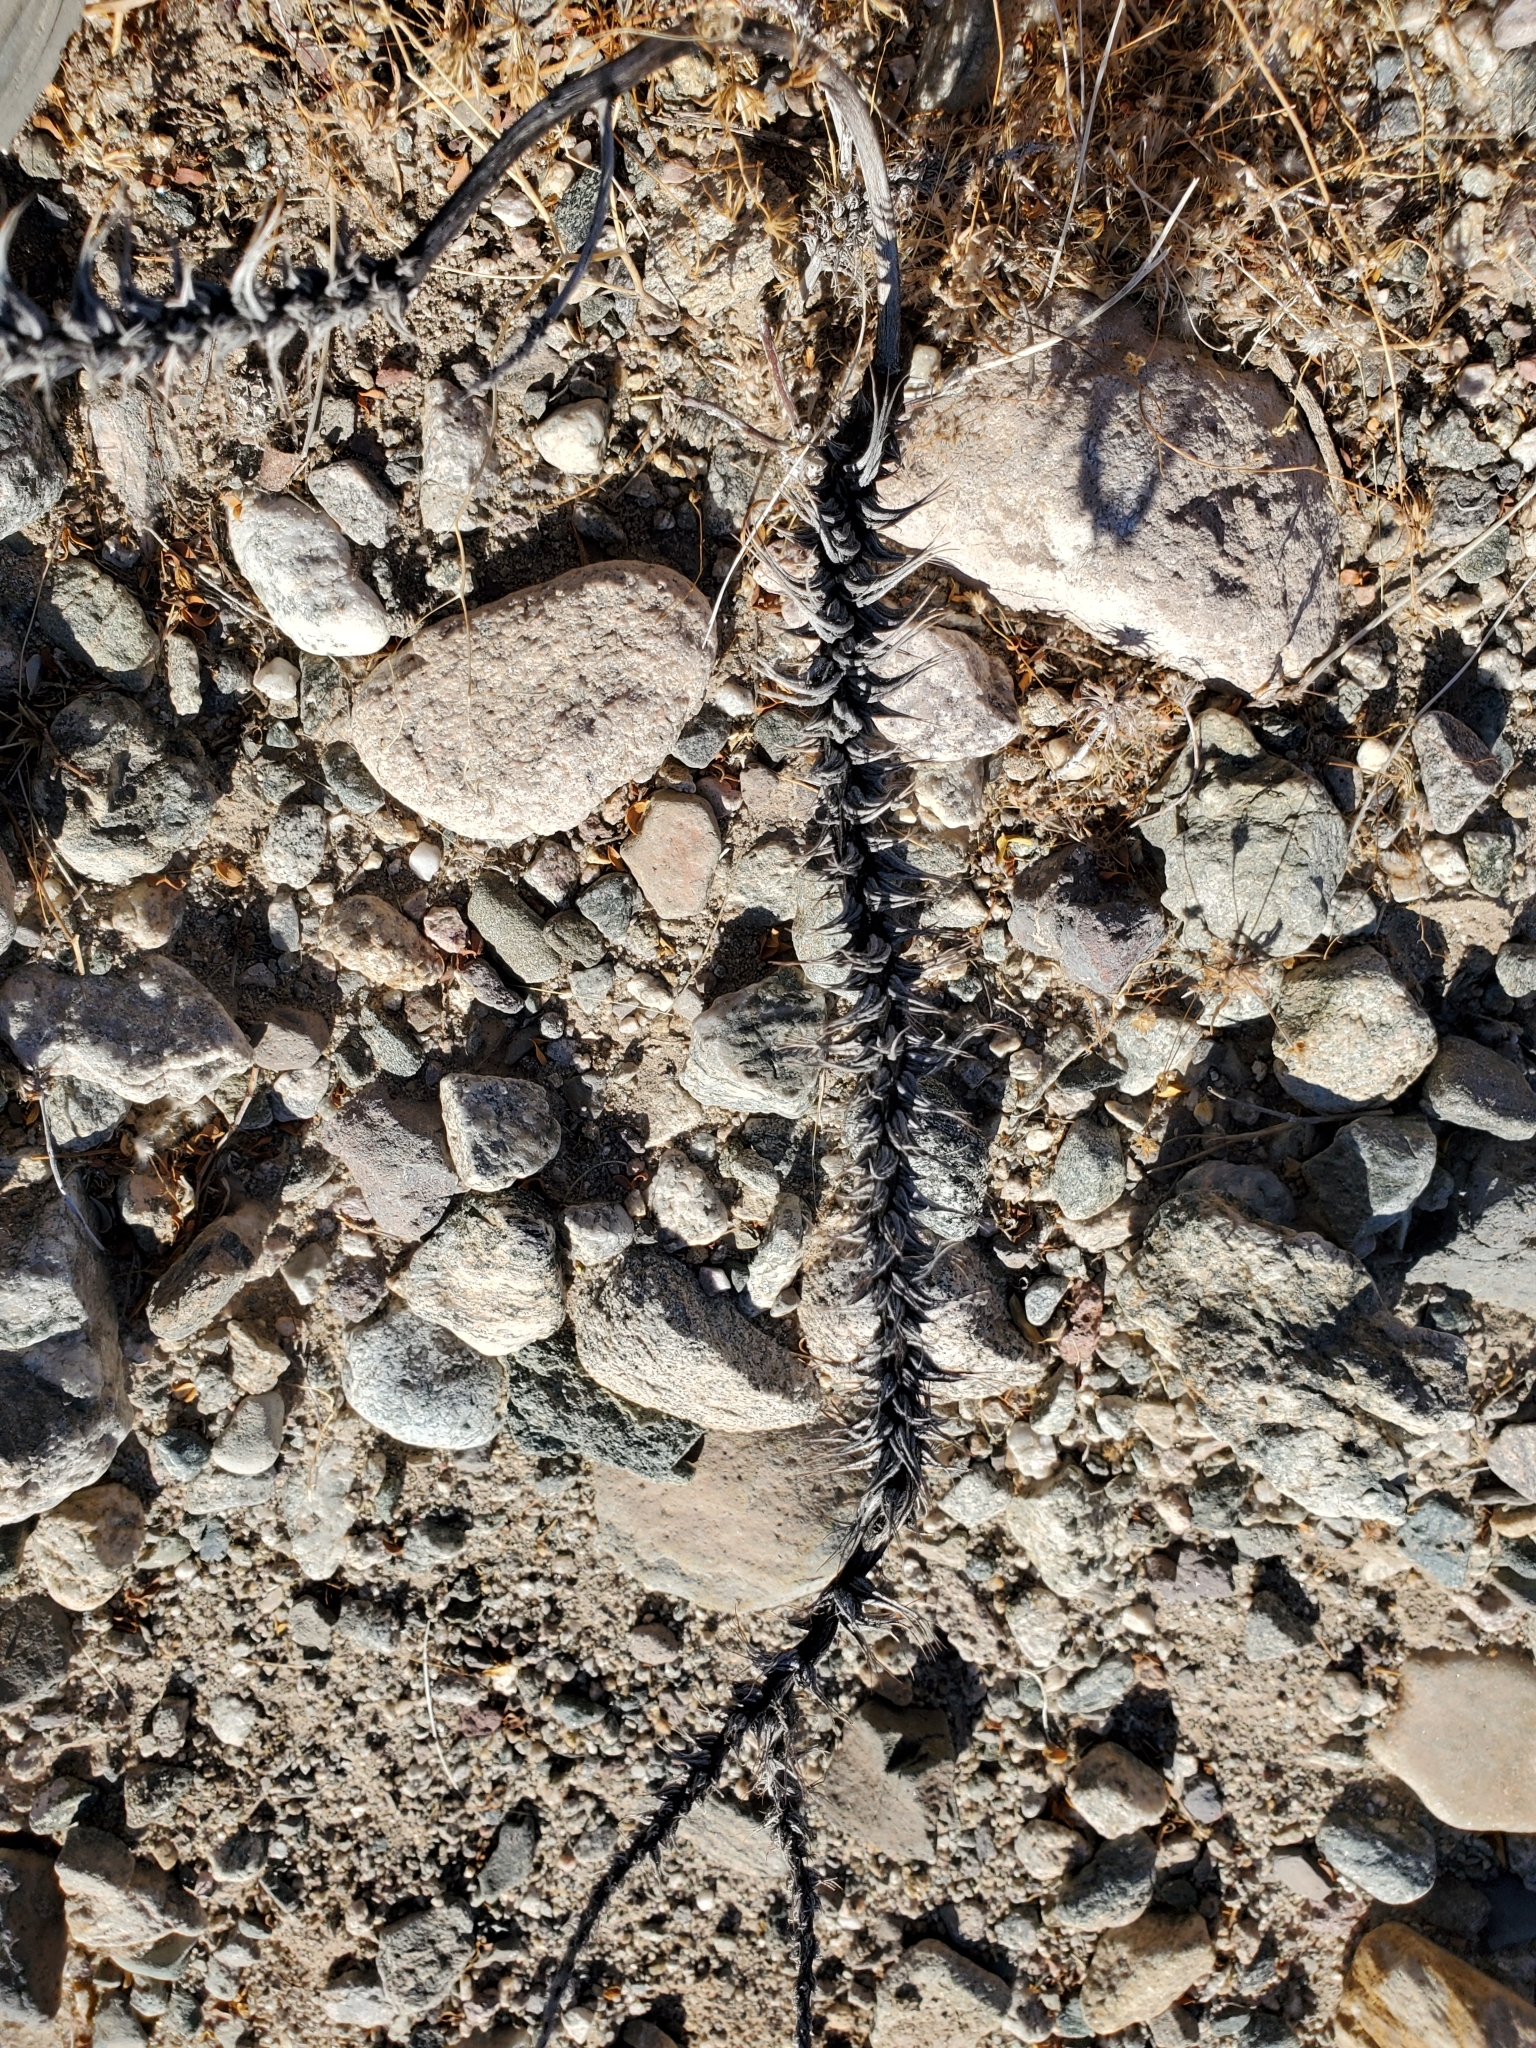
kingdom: Plantae
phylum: Tracheophyta
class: Magnoliopsida
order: Myrtales
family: Onagraceae
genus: Eremothera
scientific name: Eremothera boothii
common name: Booth's evening primrose
